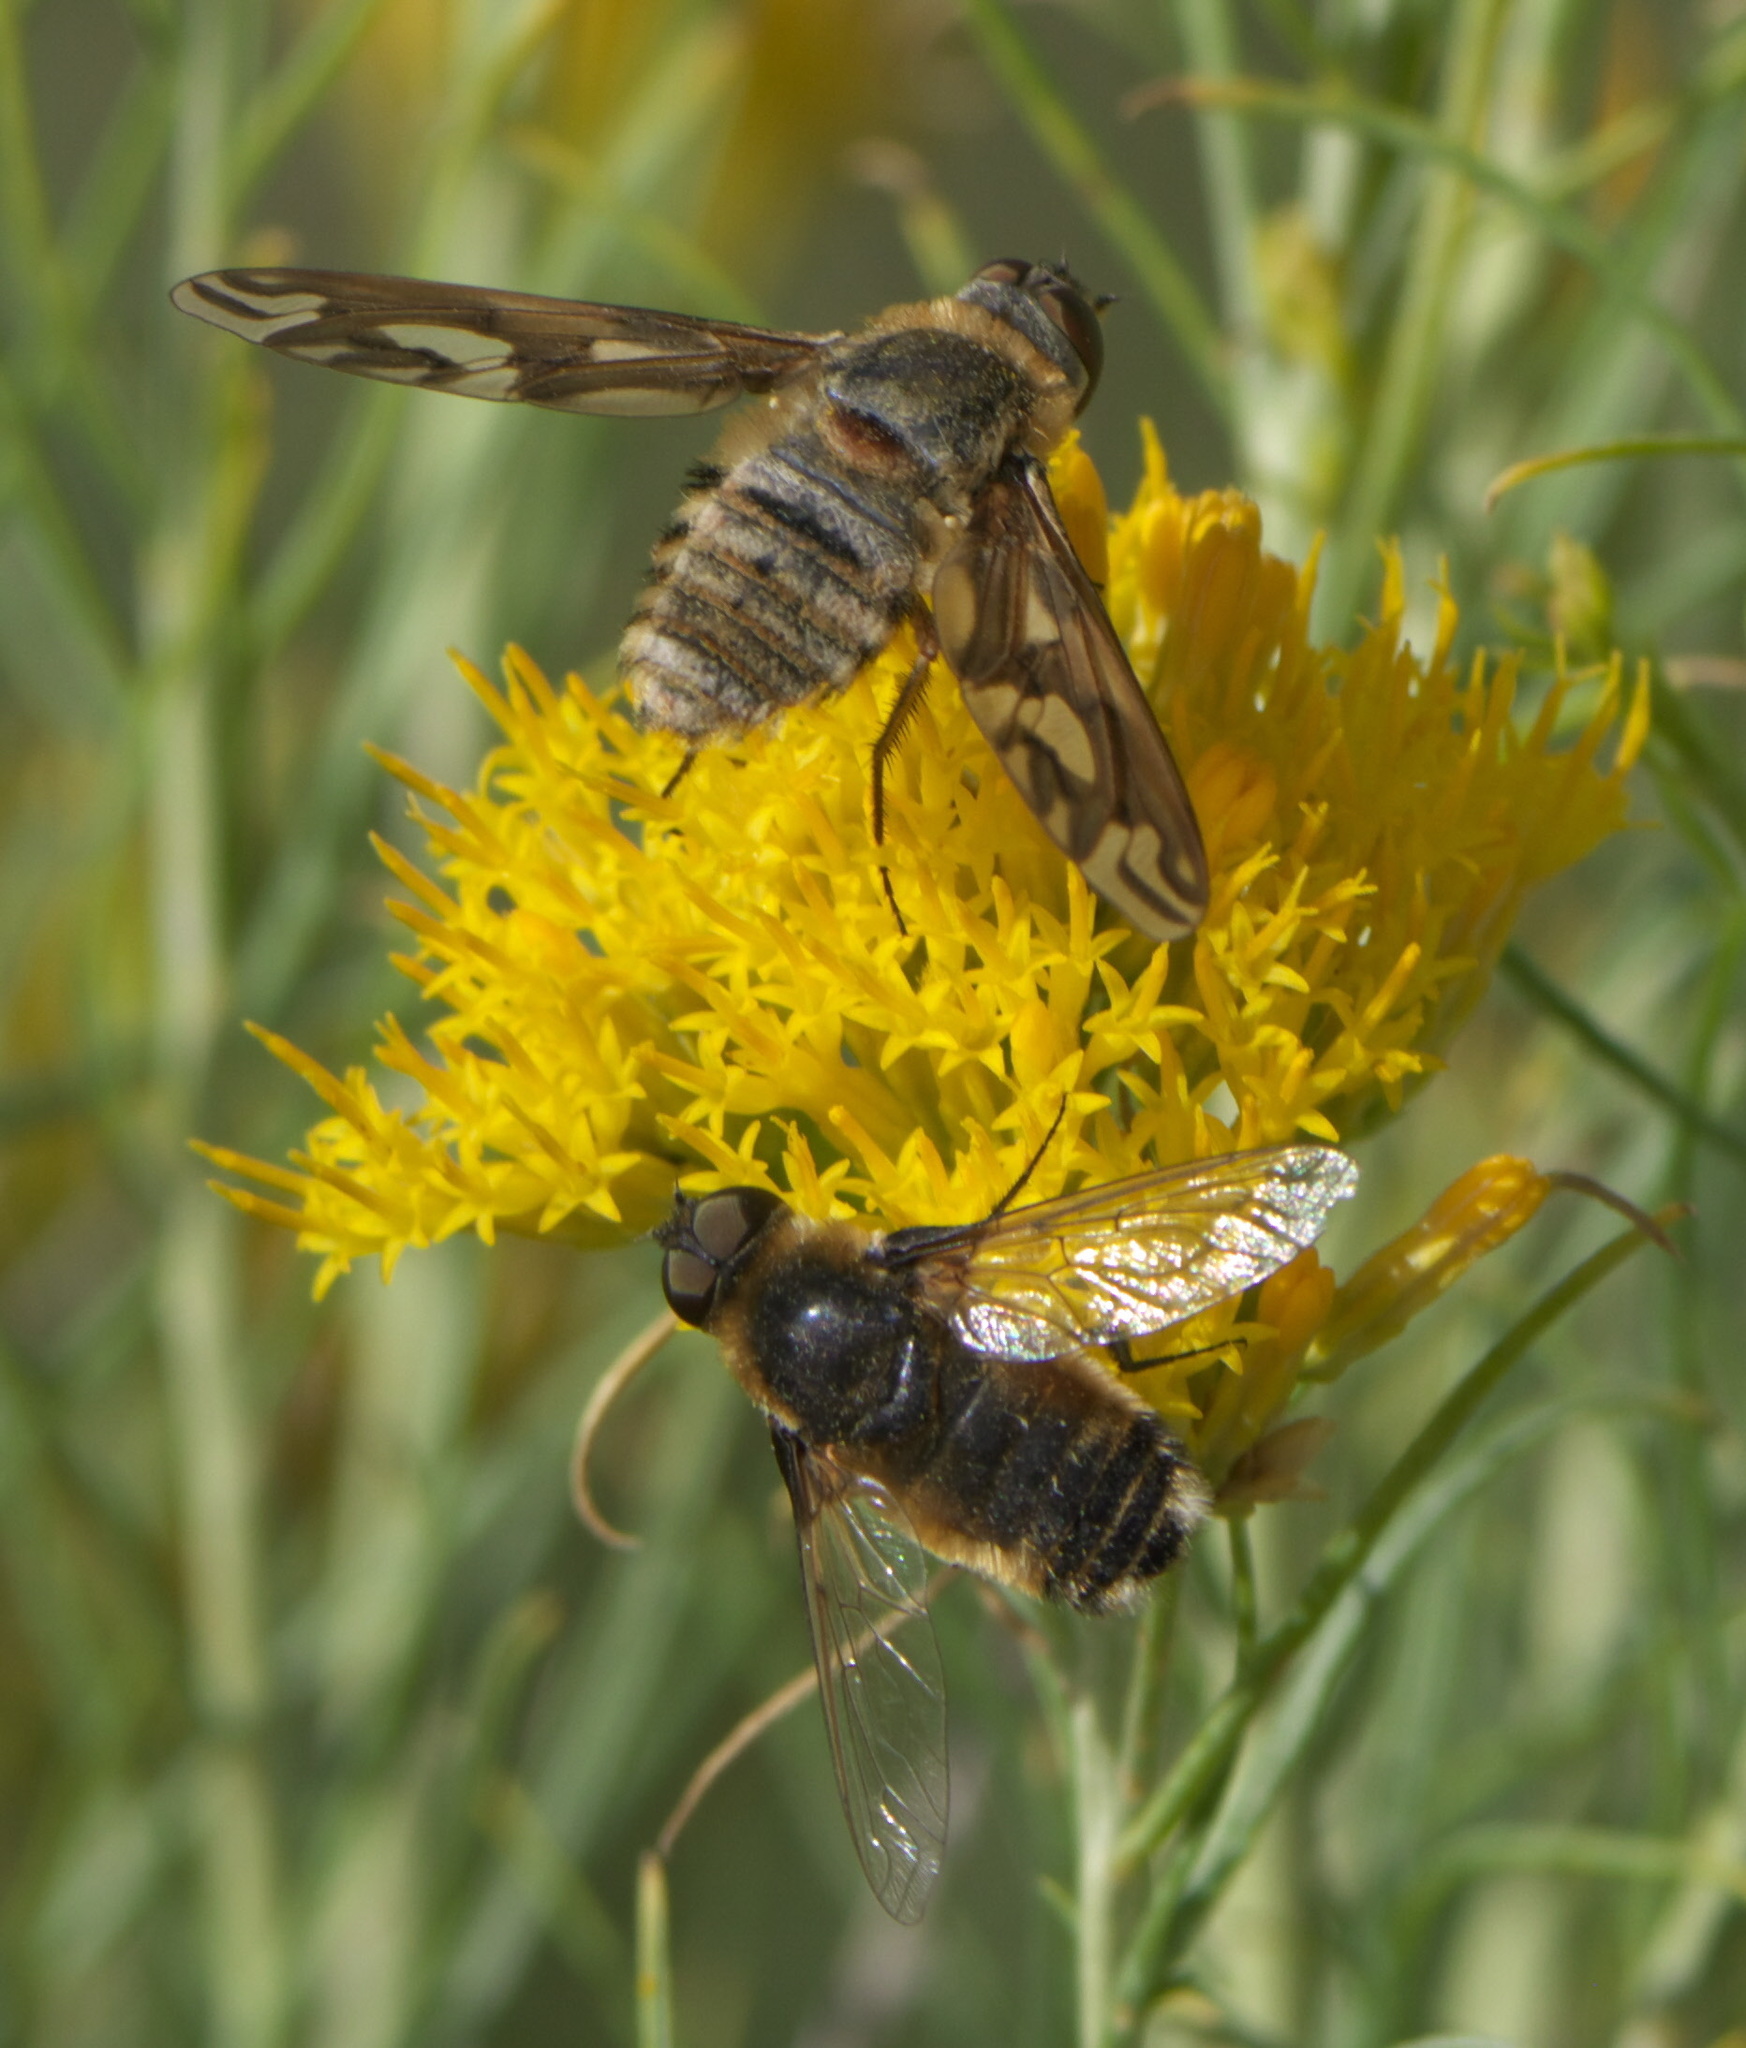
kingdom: Animalia
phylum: Arthropoda
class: Insecta
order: Diptera
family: Bombyliidae
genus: Poecilanthrax
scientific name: Poecilanthrax willistonii
